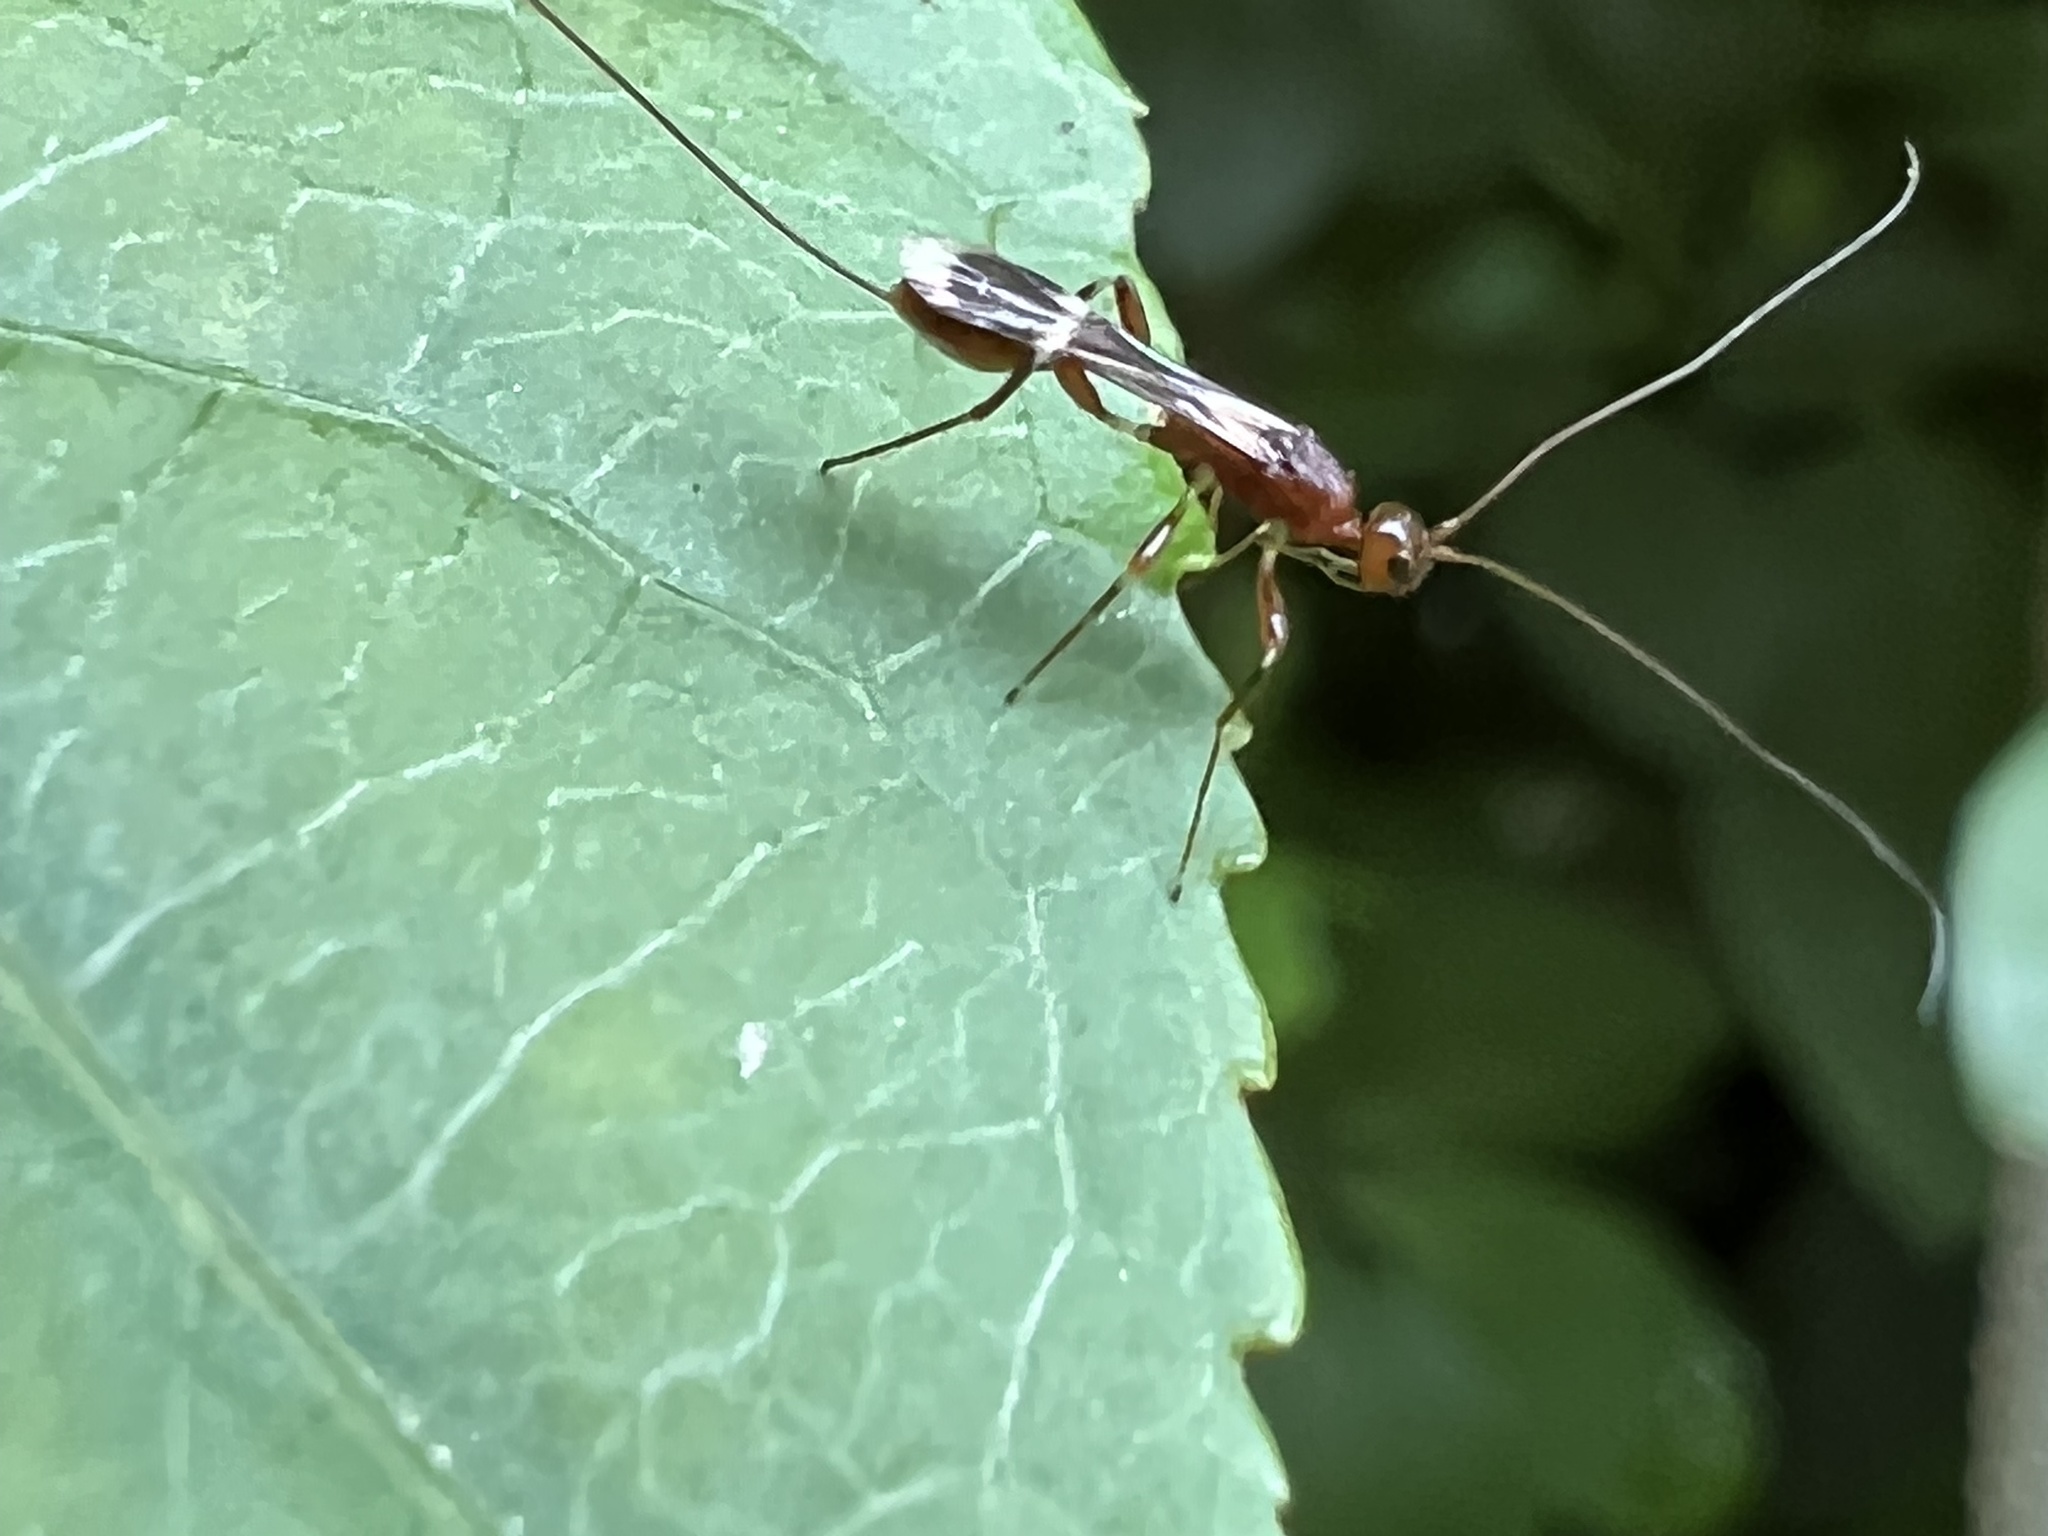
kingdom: Animalia
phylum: Arthropoda
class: Insecta
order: Hymenoptera
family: Braconidae
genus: Spathius
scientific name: Spathius elegans
